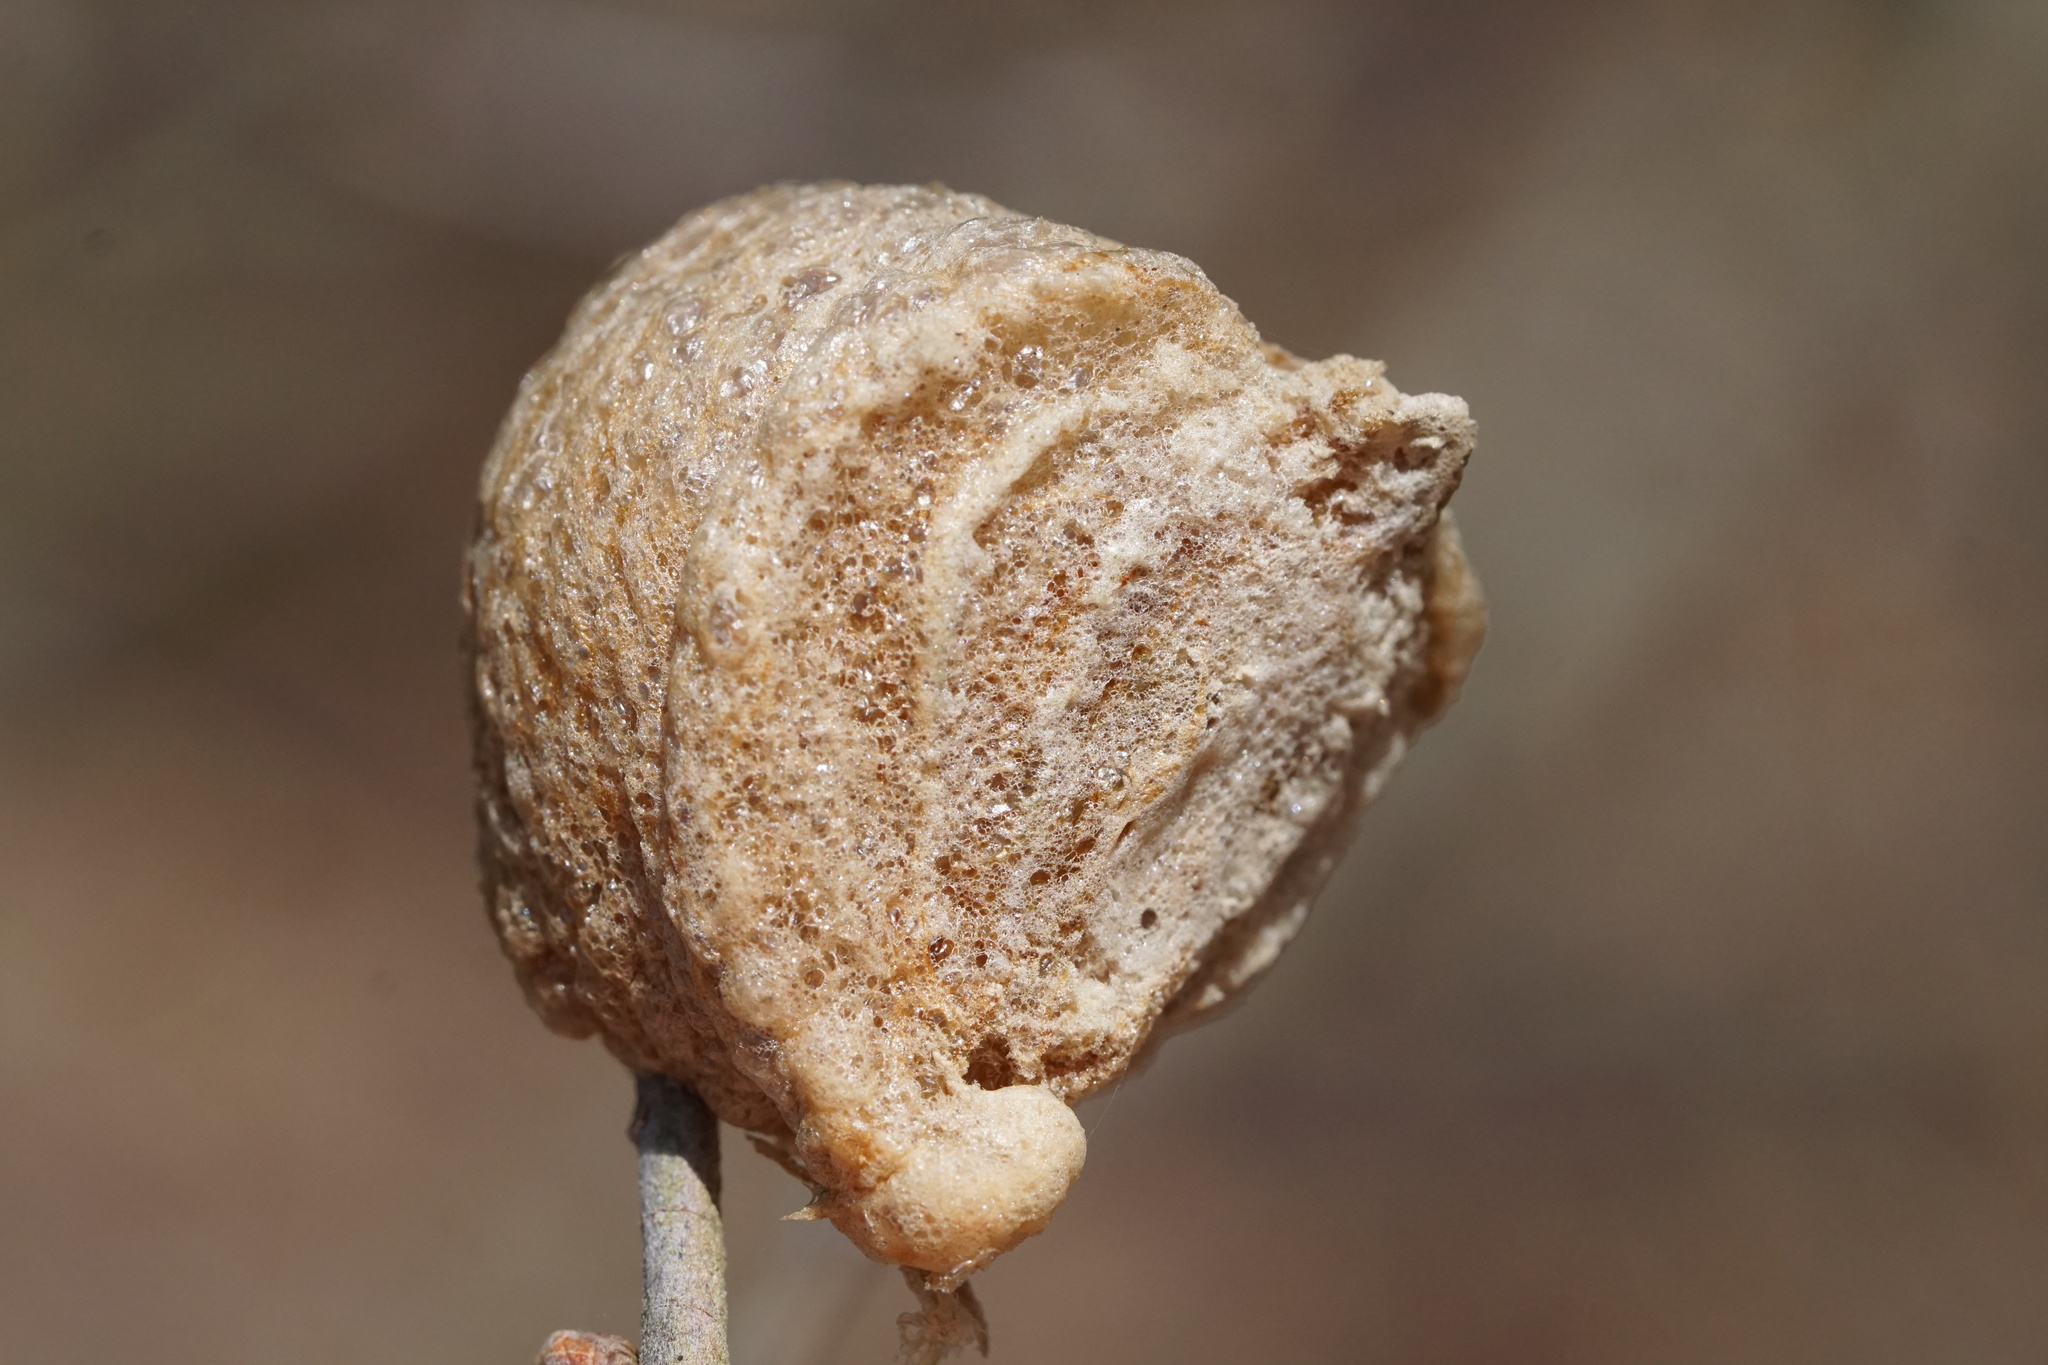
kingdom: Animalia
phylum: Arthropoda
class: Insecta
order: Mantodea
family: Mantidae
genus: Tenodera
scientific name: Tenodera sinensis
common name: Chinese mantis
